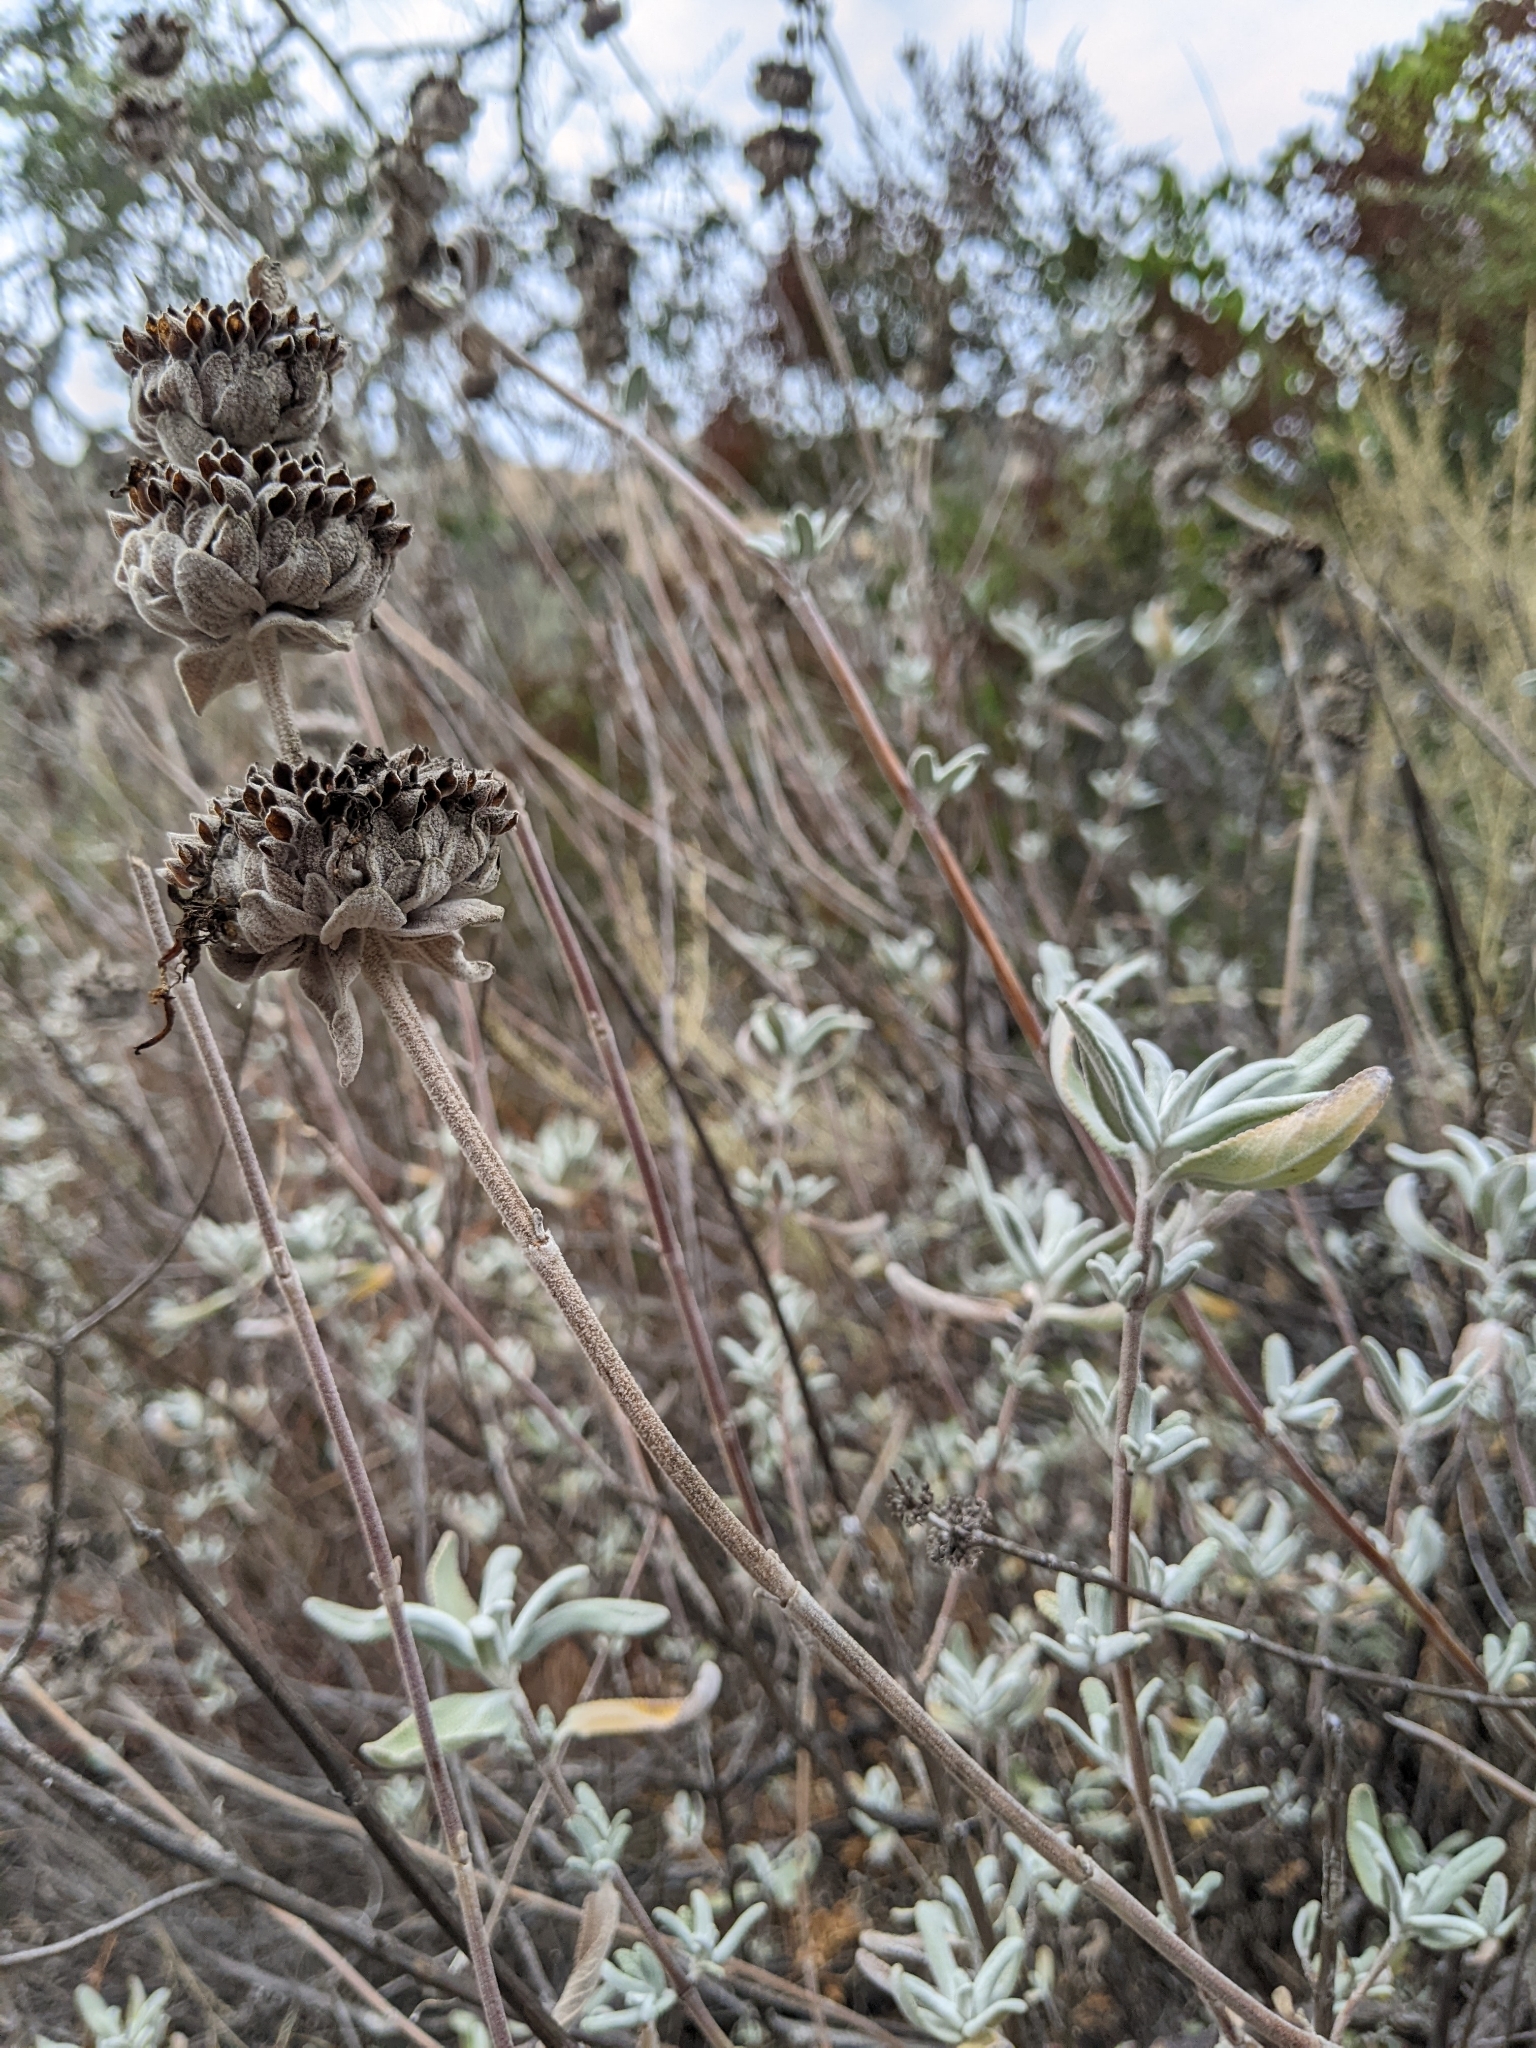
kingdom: Plantae
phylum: Tracheophyta
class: Magnoliopsida
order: Lamiales
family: Lamiaceae
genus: Salvia
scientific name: Salvia leucophylla
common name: Purple sage
